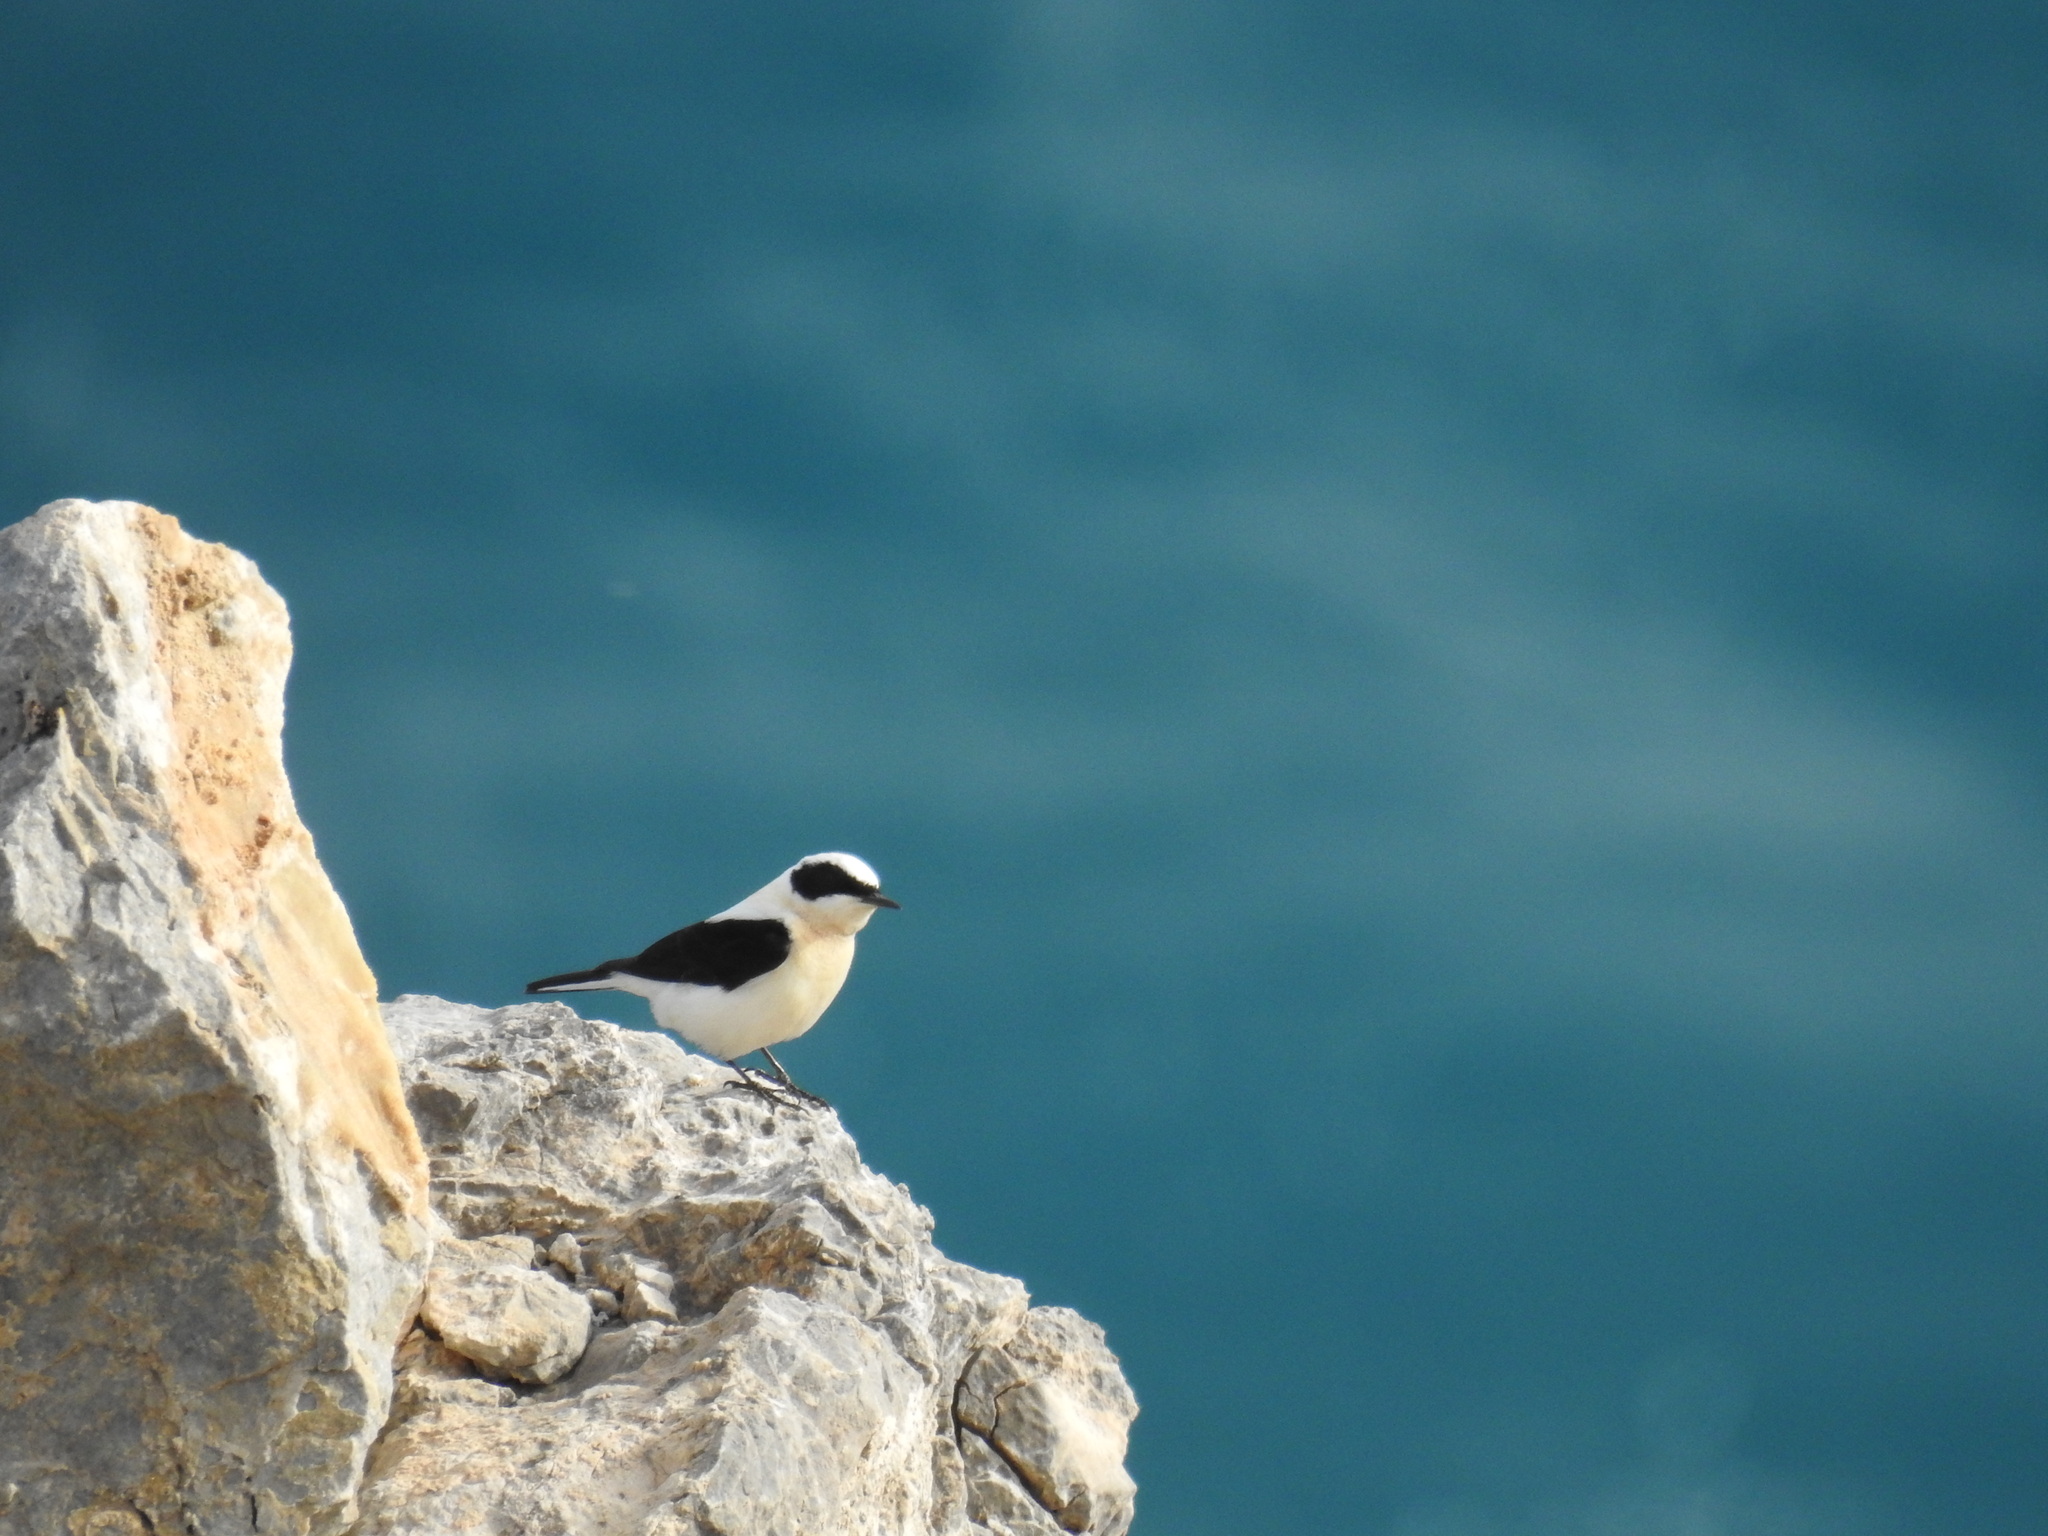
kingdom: Animalia
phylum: Chordata
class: Aves
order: Passeriformes
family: Muscicapidae
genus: Oenanthe
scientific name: Oenanthe hispanica
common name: Black-eared wheatear
